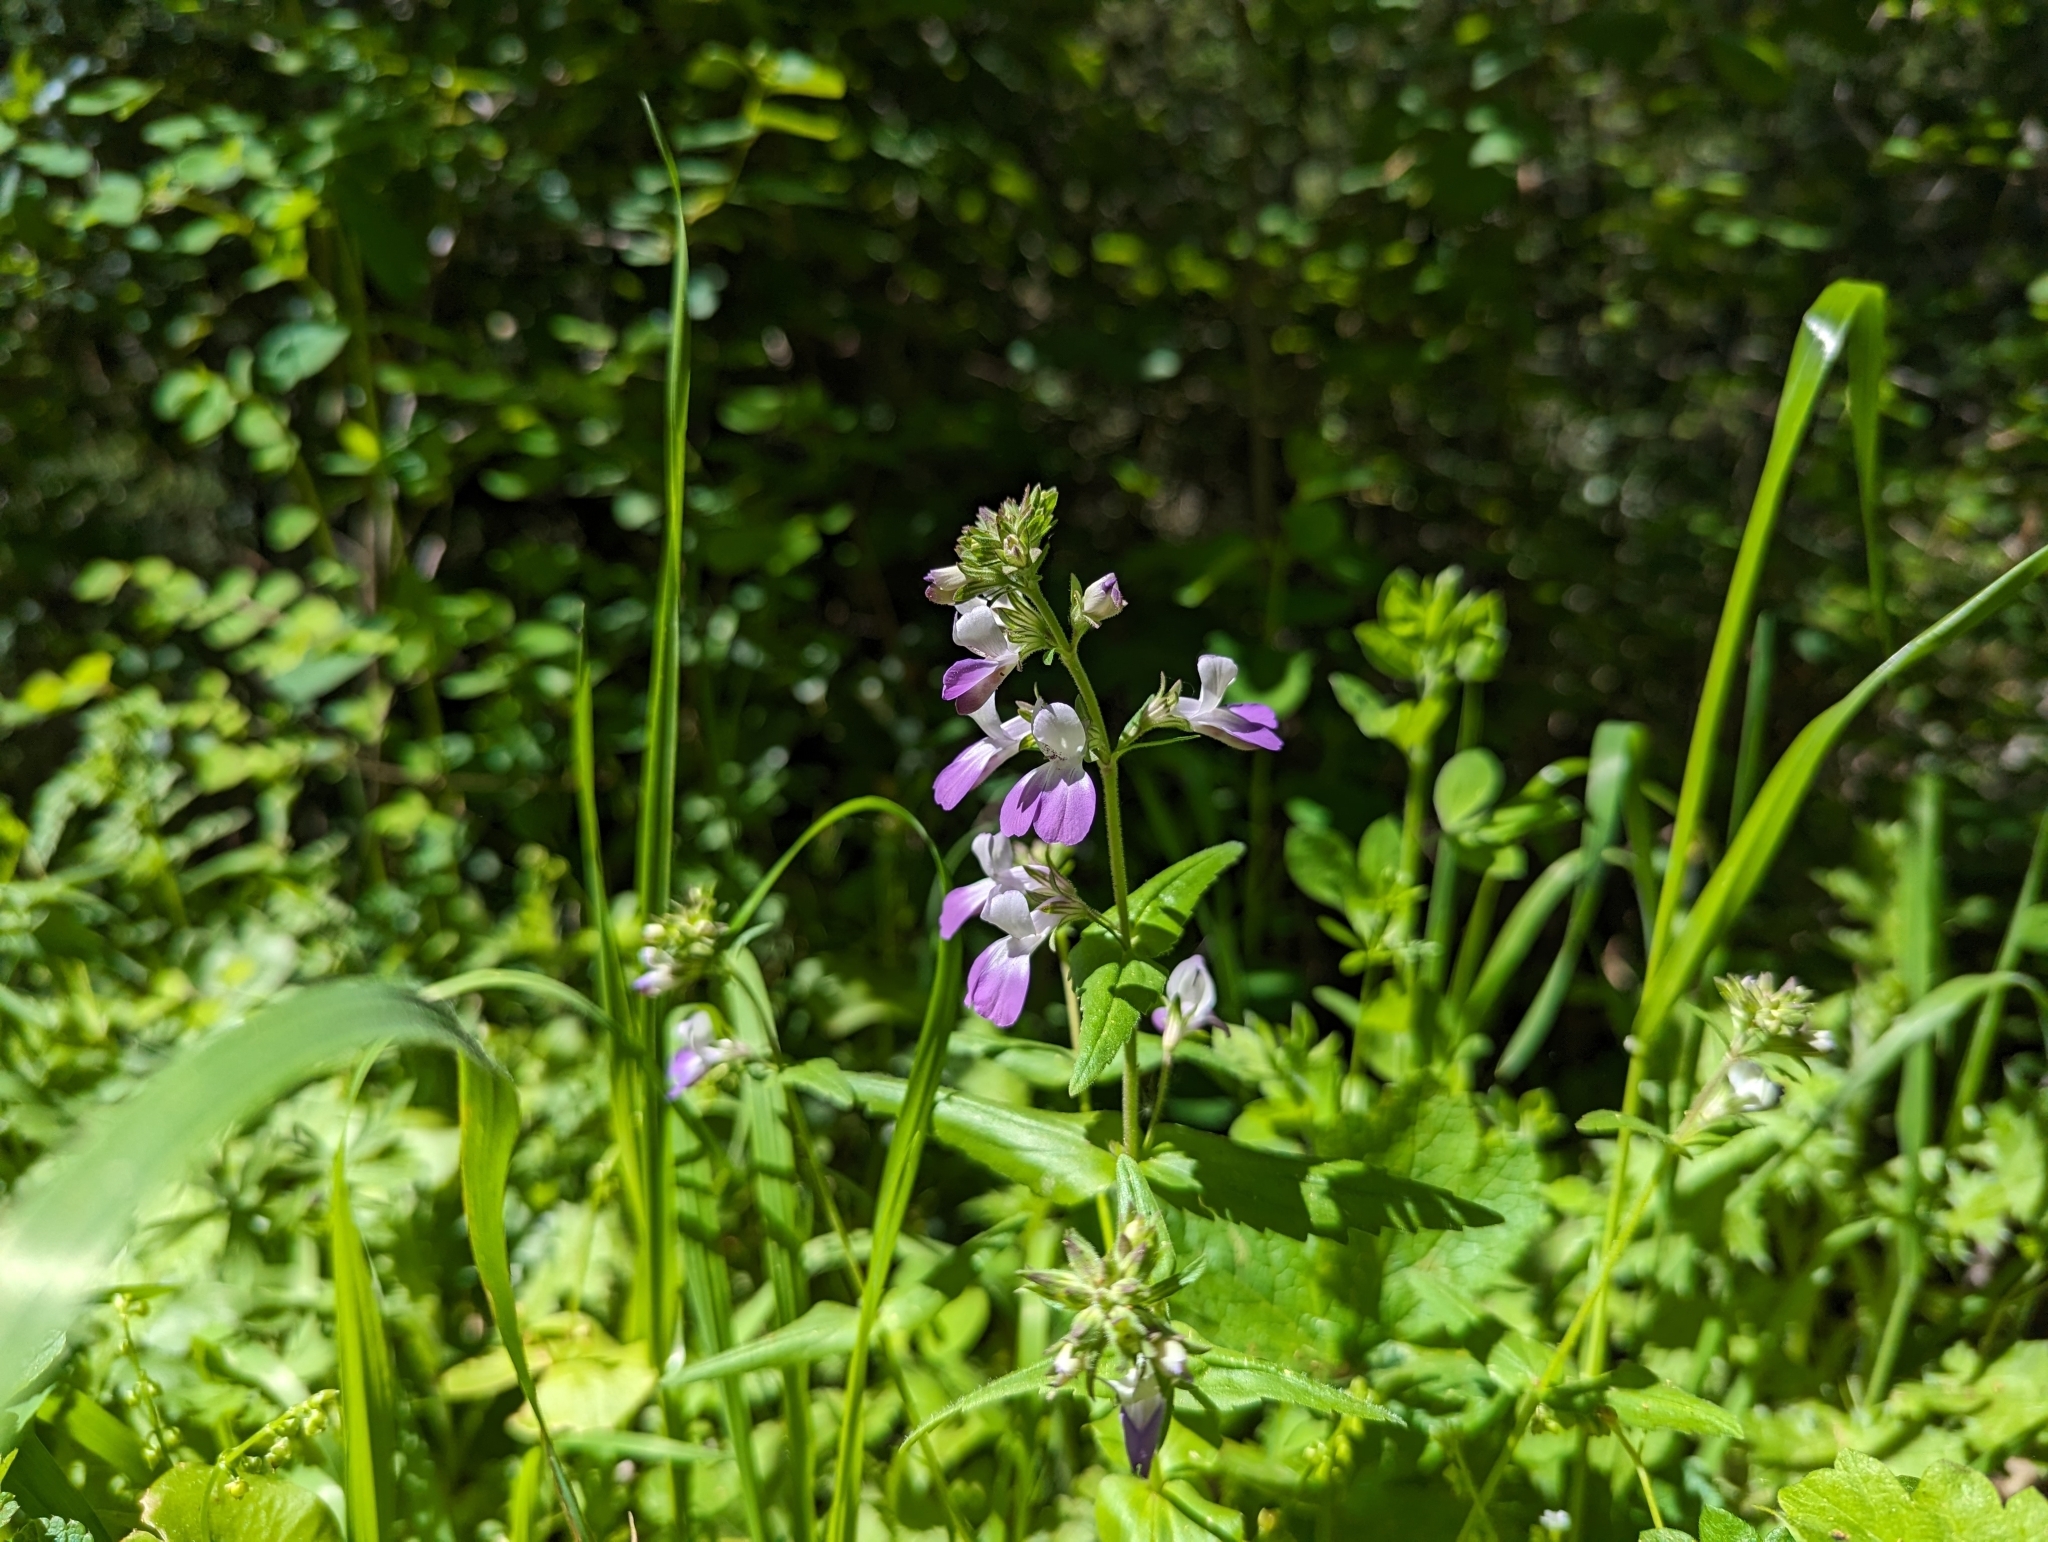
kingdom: Plantae
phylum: Tracheophyta
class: Magnoliopsida
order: Lamiales
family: Plantaginaceae
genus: Collinsia
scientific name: Collinsia multicolor
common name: San francisco collinsia
